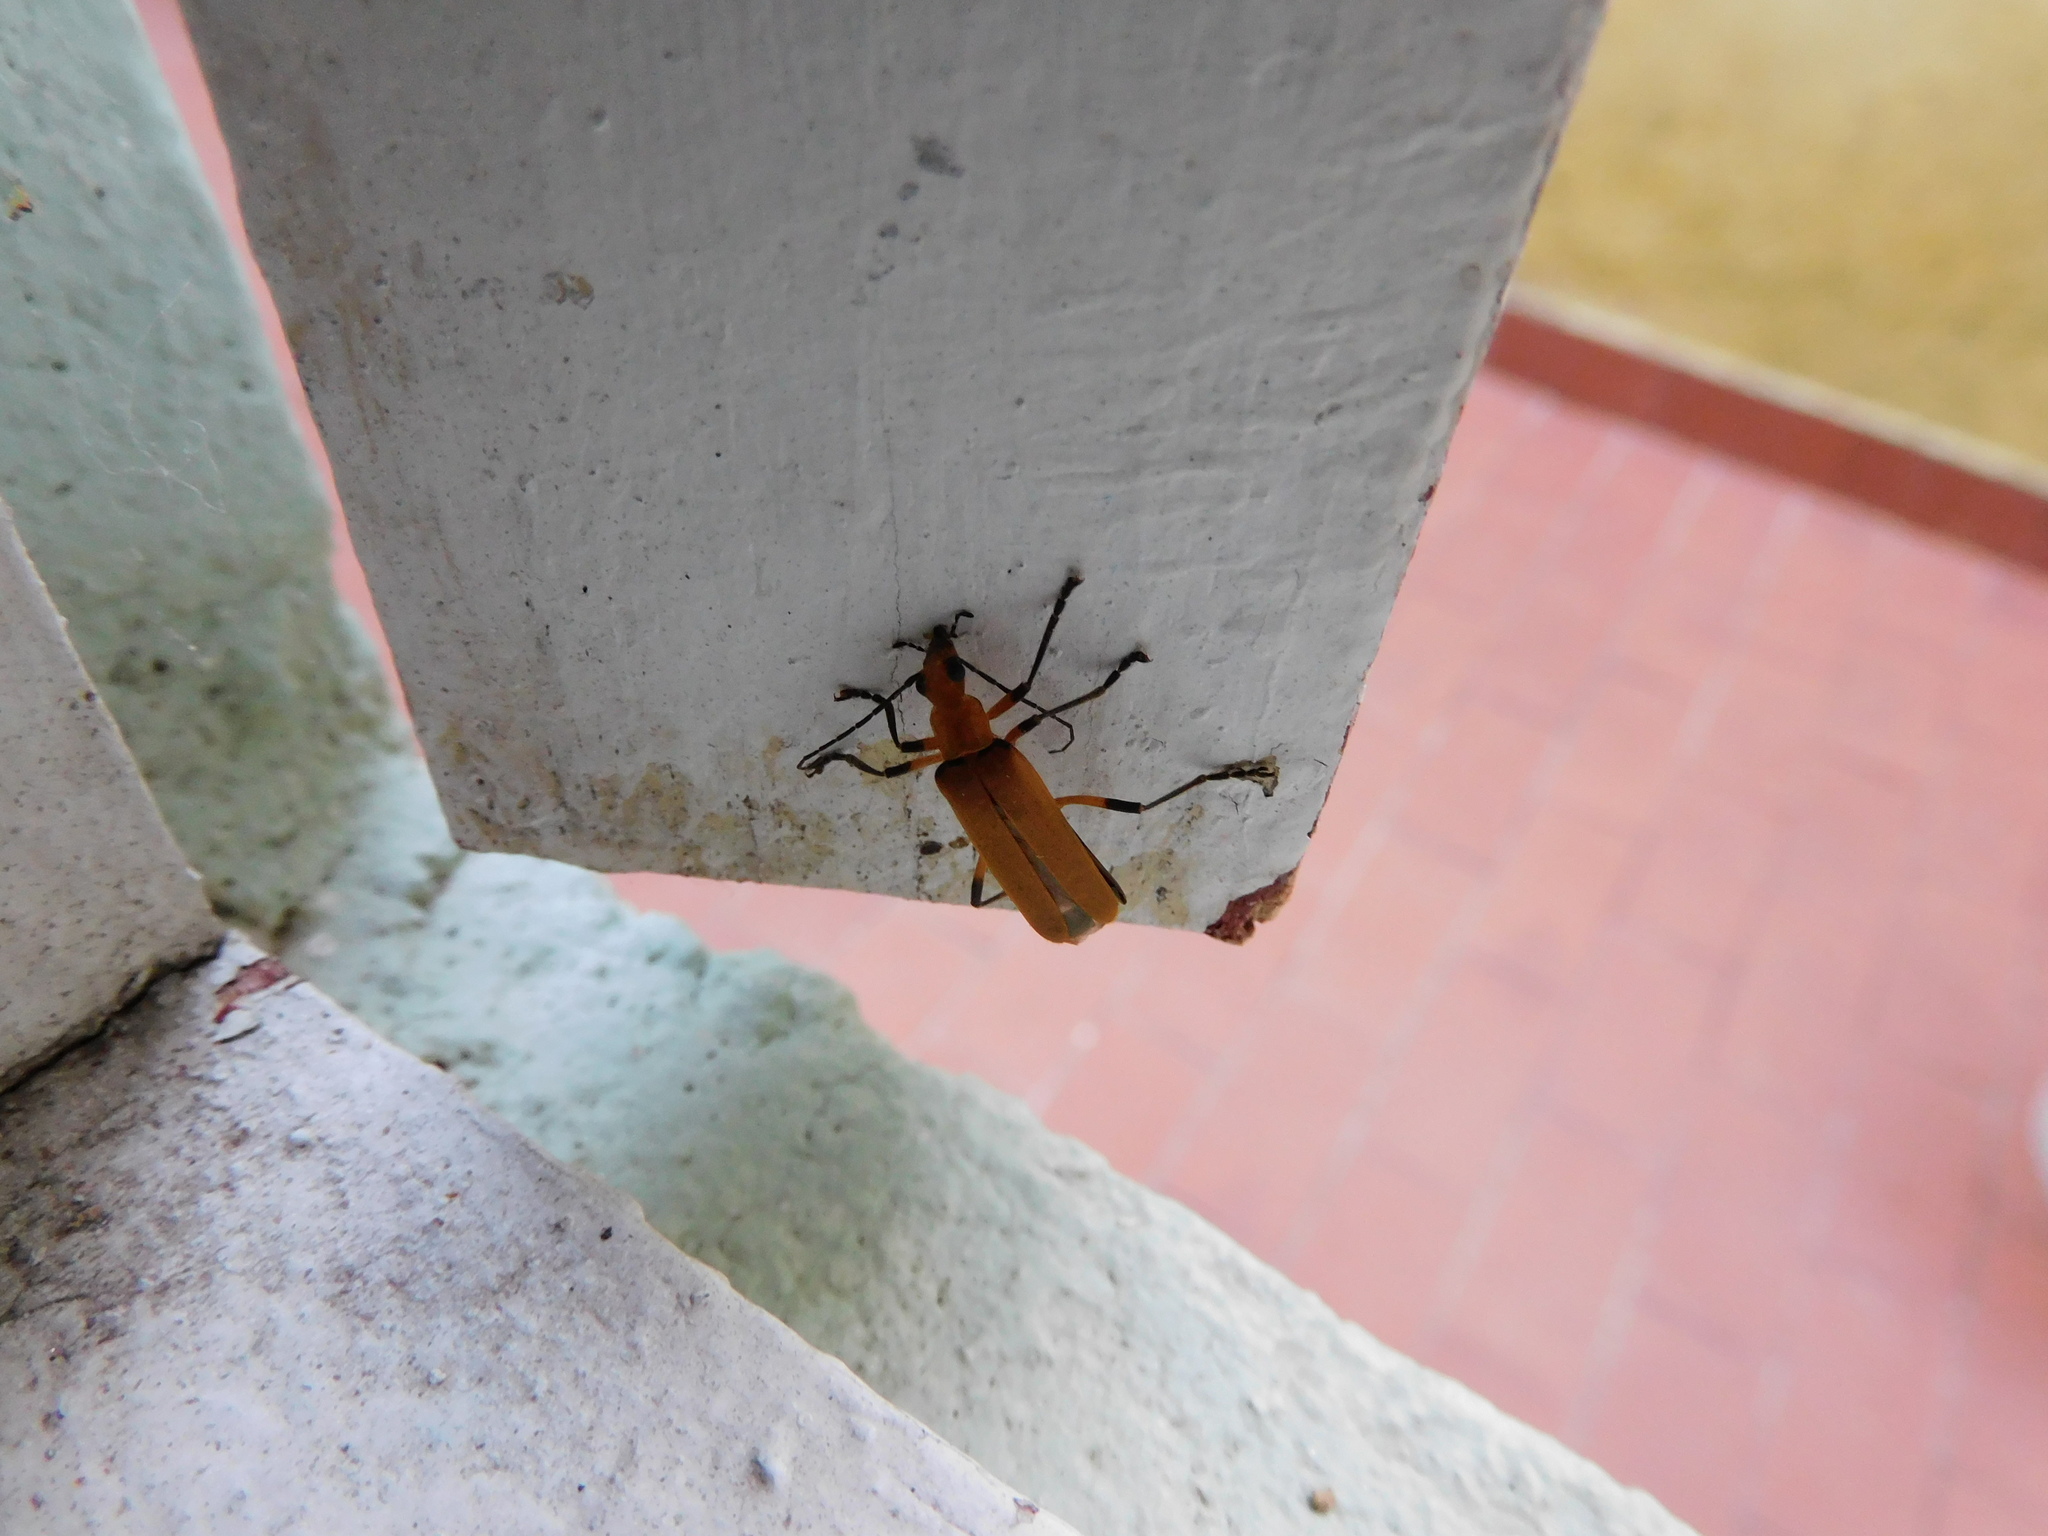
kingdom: Animalia
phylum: Arthropoda
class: Insecta
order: Coleoptera
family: Cantharidae
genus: Chauliognathus
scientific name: Chauliognathus
